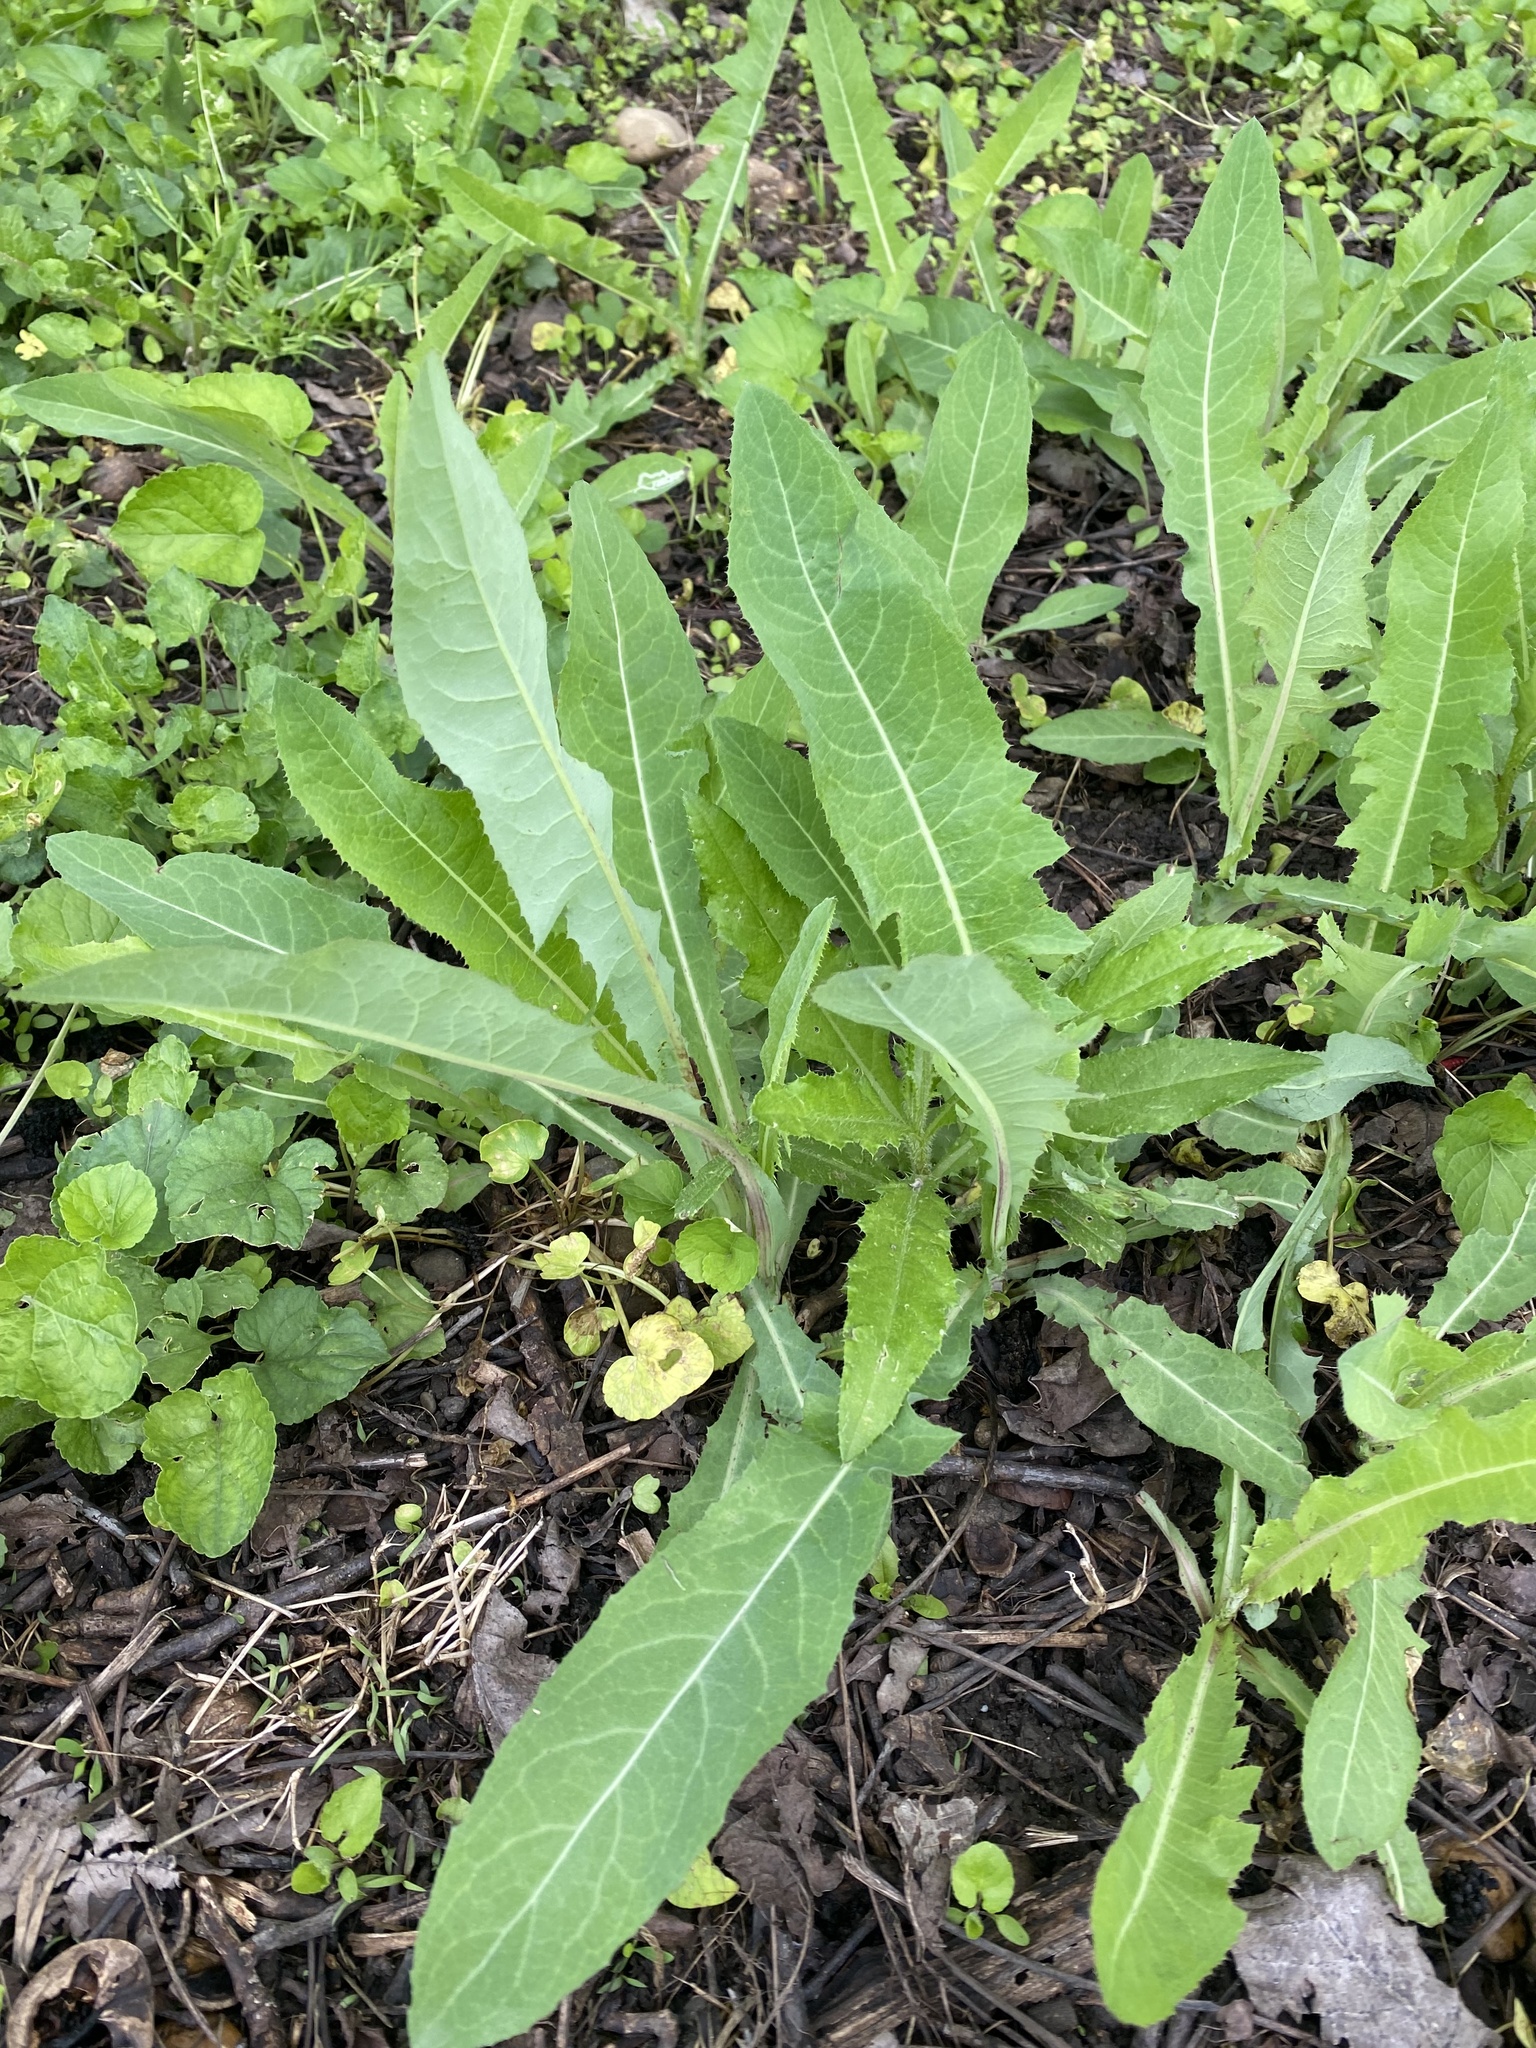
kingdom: Plantae
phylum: Tracheophyta
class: Magnoliopsida
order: Asterales
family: Asteraceae
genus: Sonchus
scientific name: Sonchus arvensis
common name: Perennial sow-thistle
